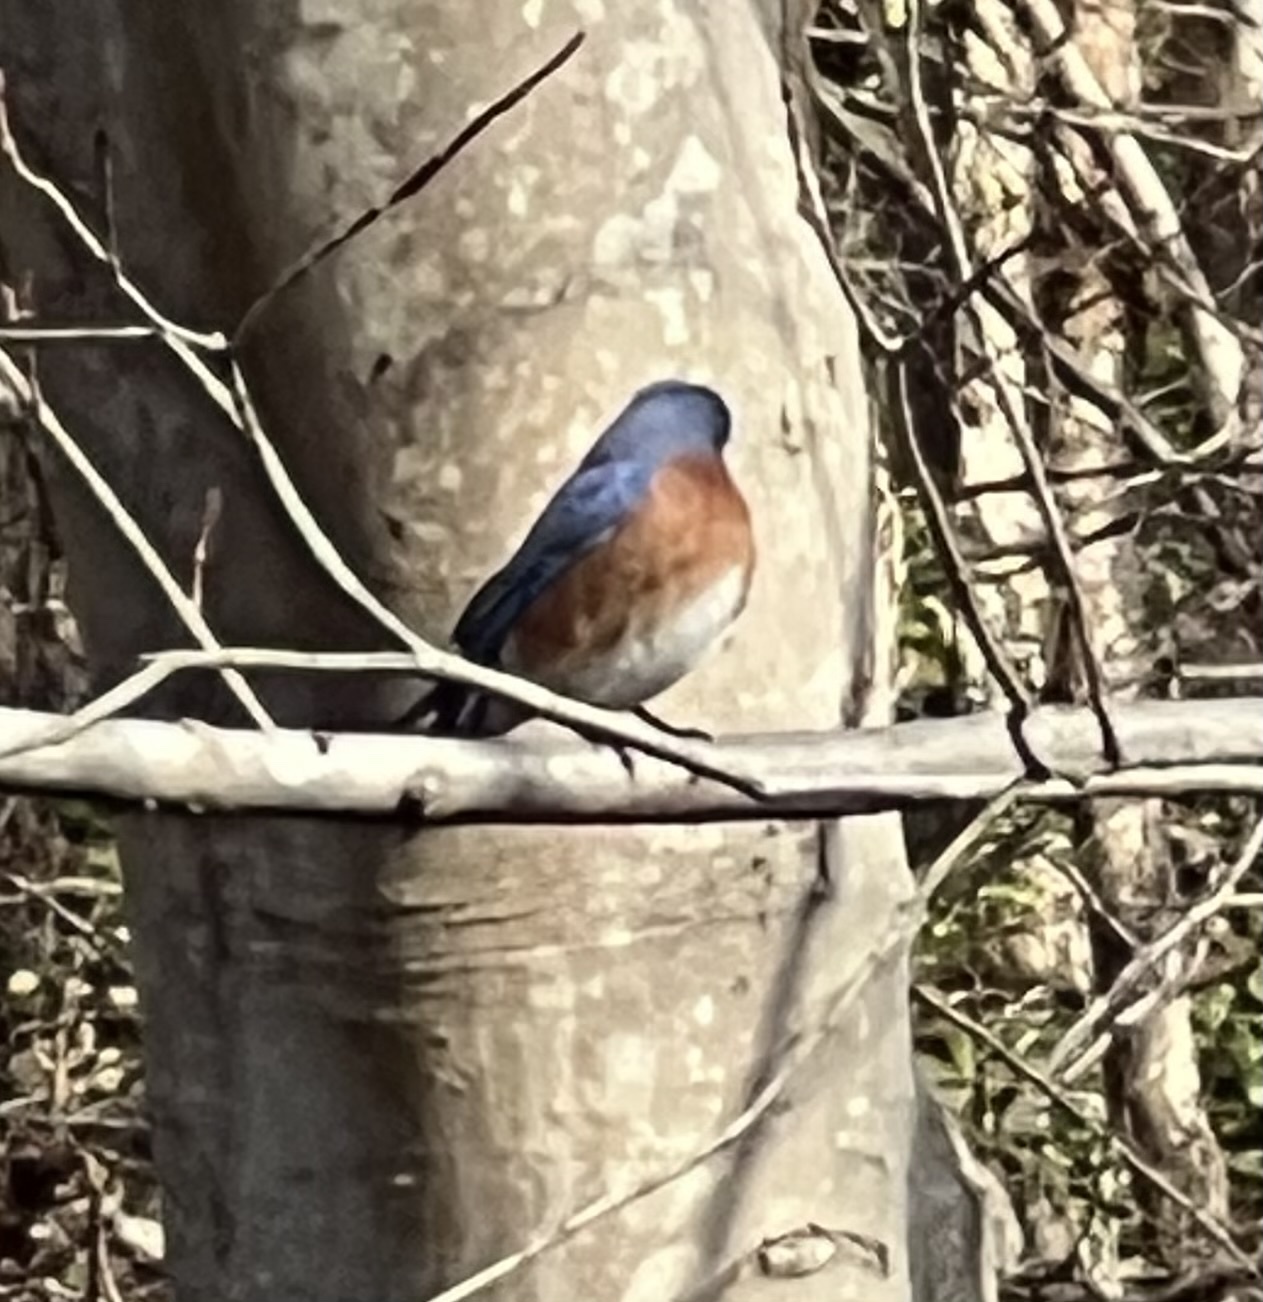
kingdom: Animalia
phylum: Chordata
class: Aves
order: Passeriformes
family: Turdidae
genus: Sialia
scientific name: Sialia sialis
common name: Eastern bluebird
